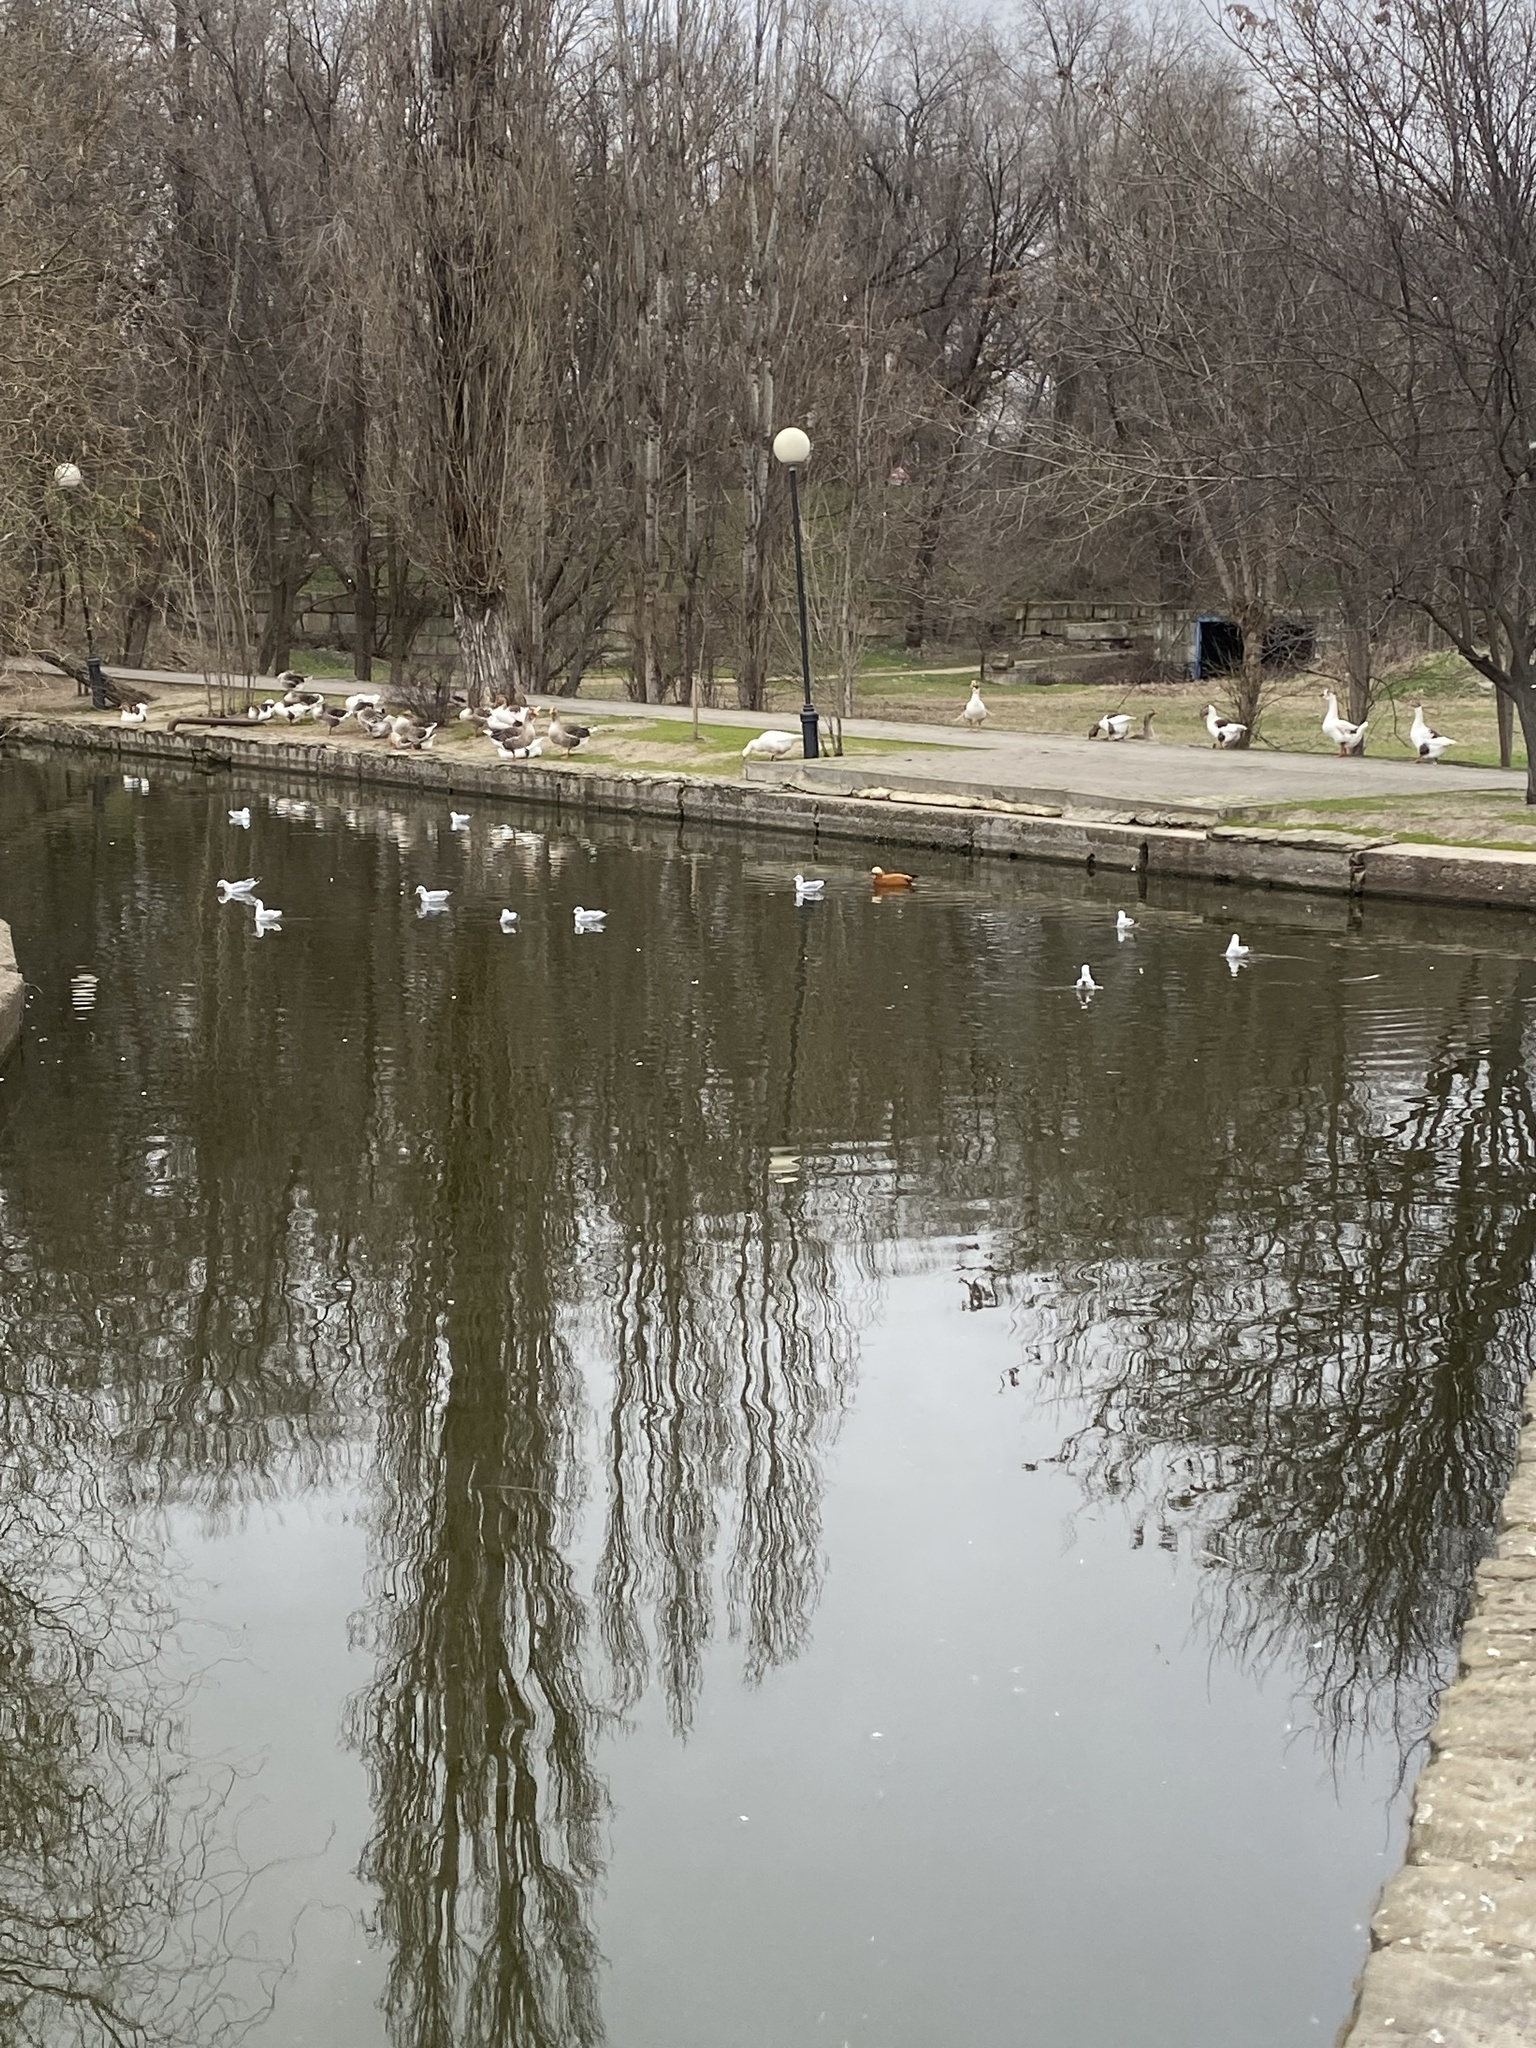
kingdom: Animalia
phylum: Chordata
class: Aves
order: Anseriformes
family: Anatidae
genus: Tadorna
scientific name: Tadorna ferruginea
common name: Ruddy shelduck
